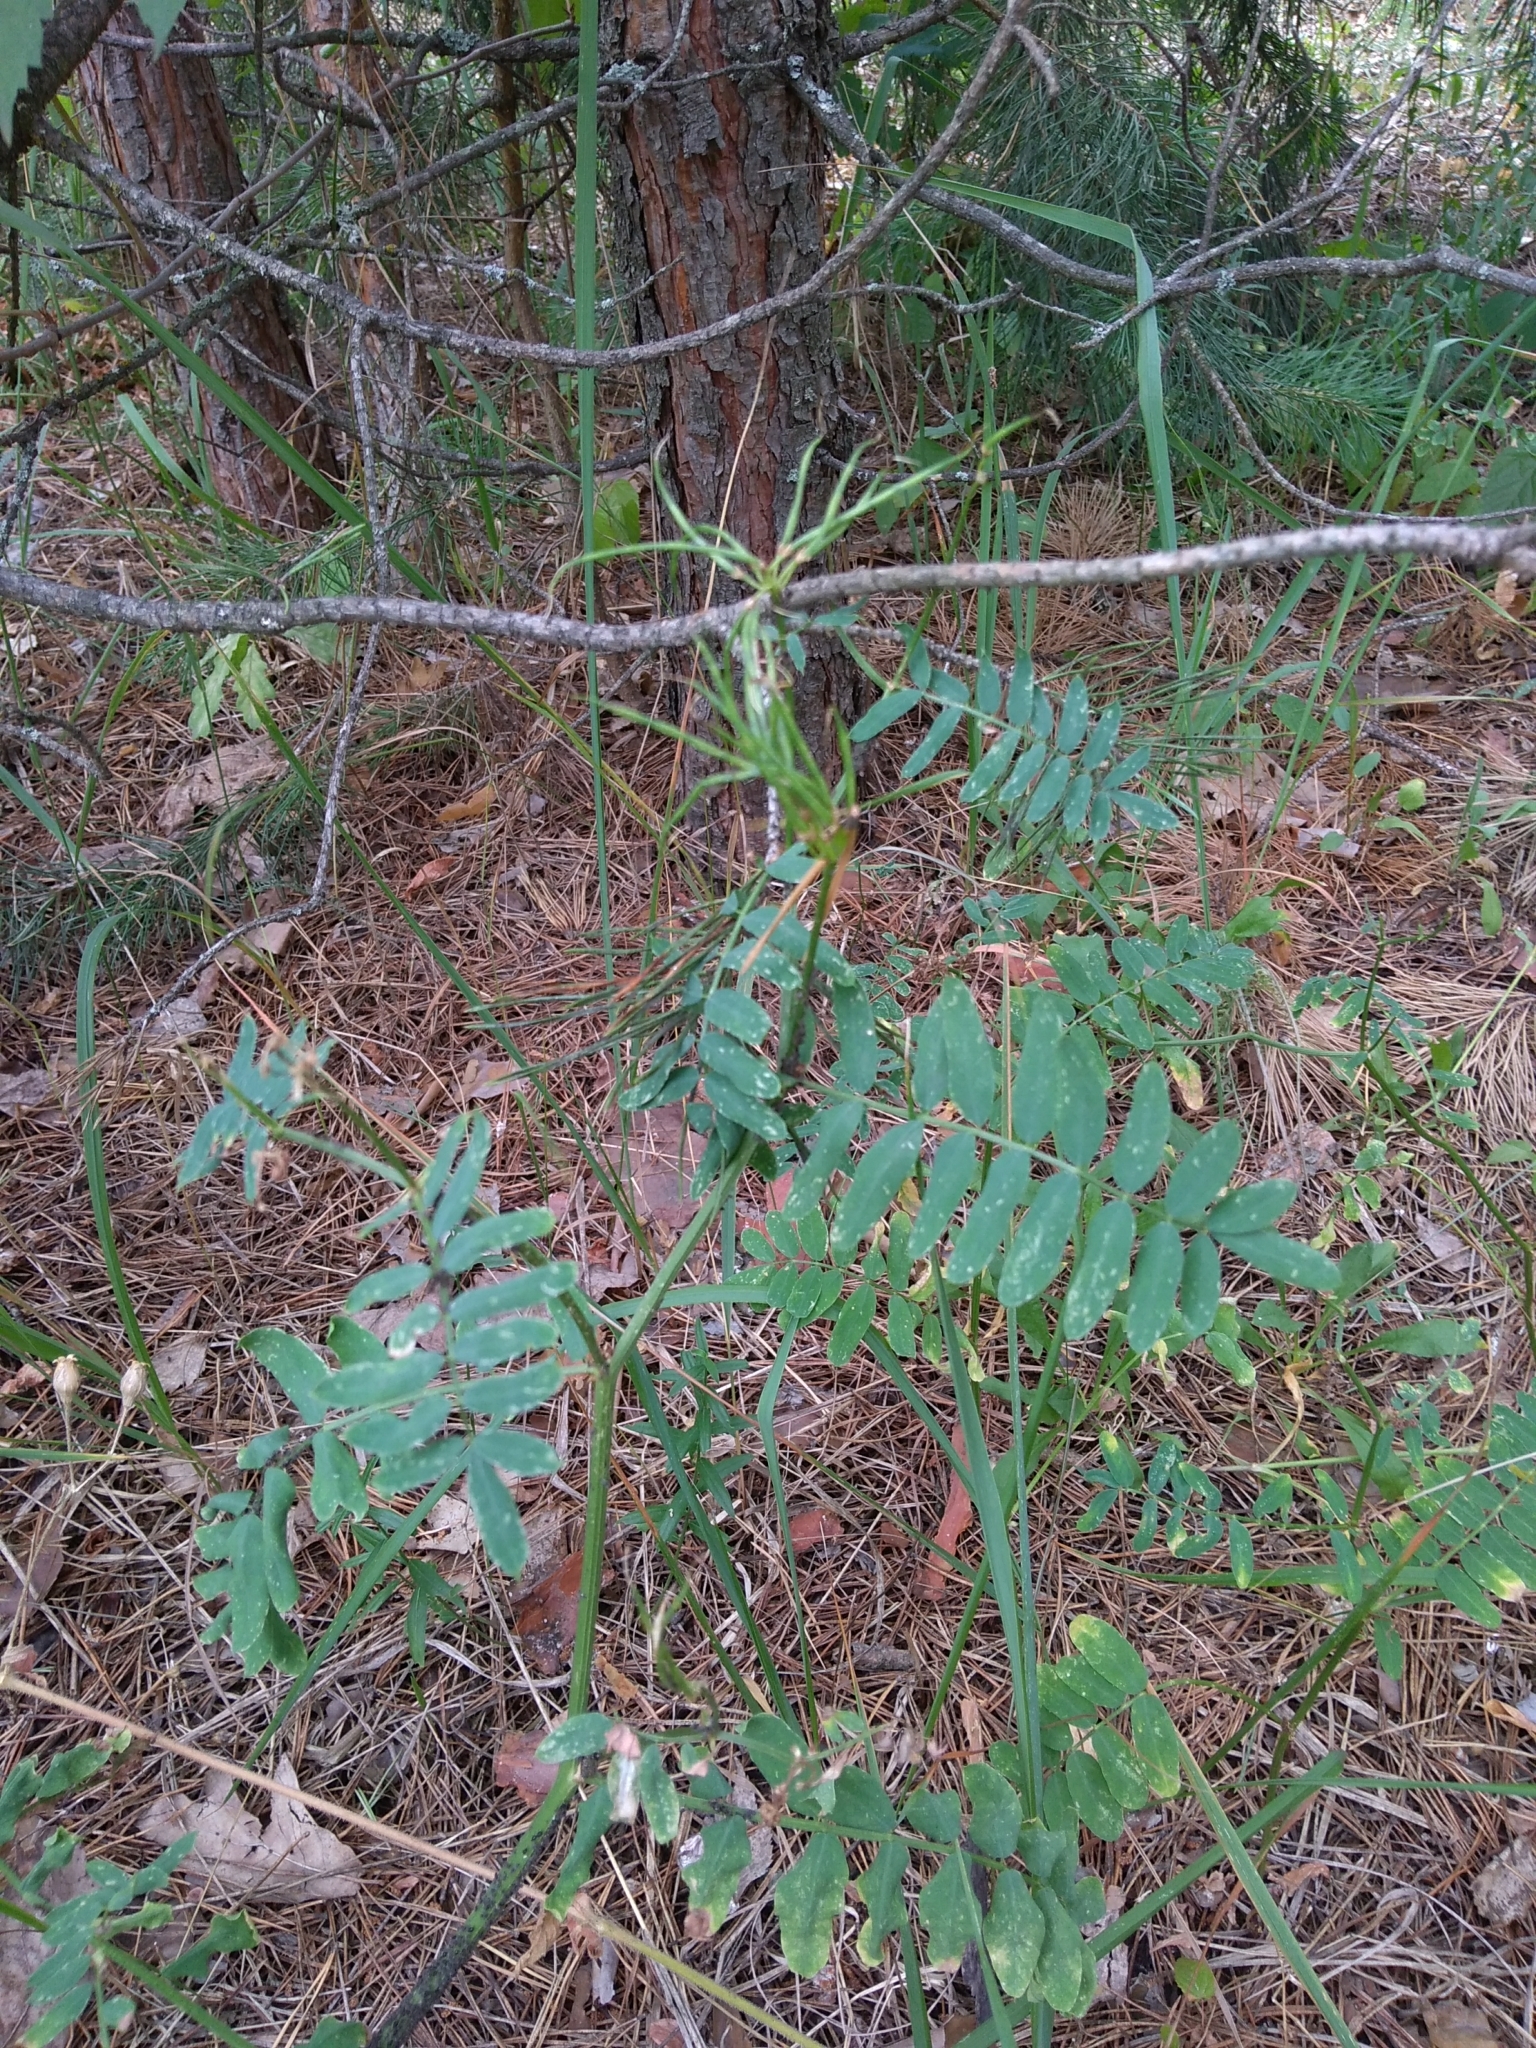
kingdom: Plantae
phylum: Tracheophyta
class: Magnoliopsida
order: Fabales
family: Fabaceae
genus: Coronilla
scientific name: Coronilla varia
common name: Crownvetch
